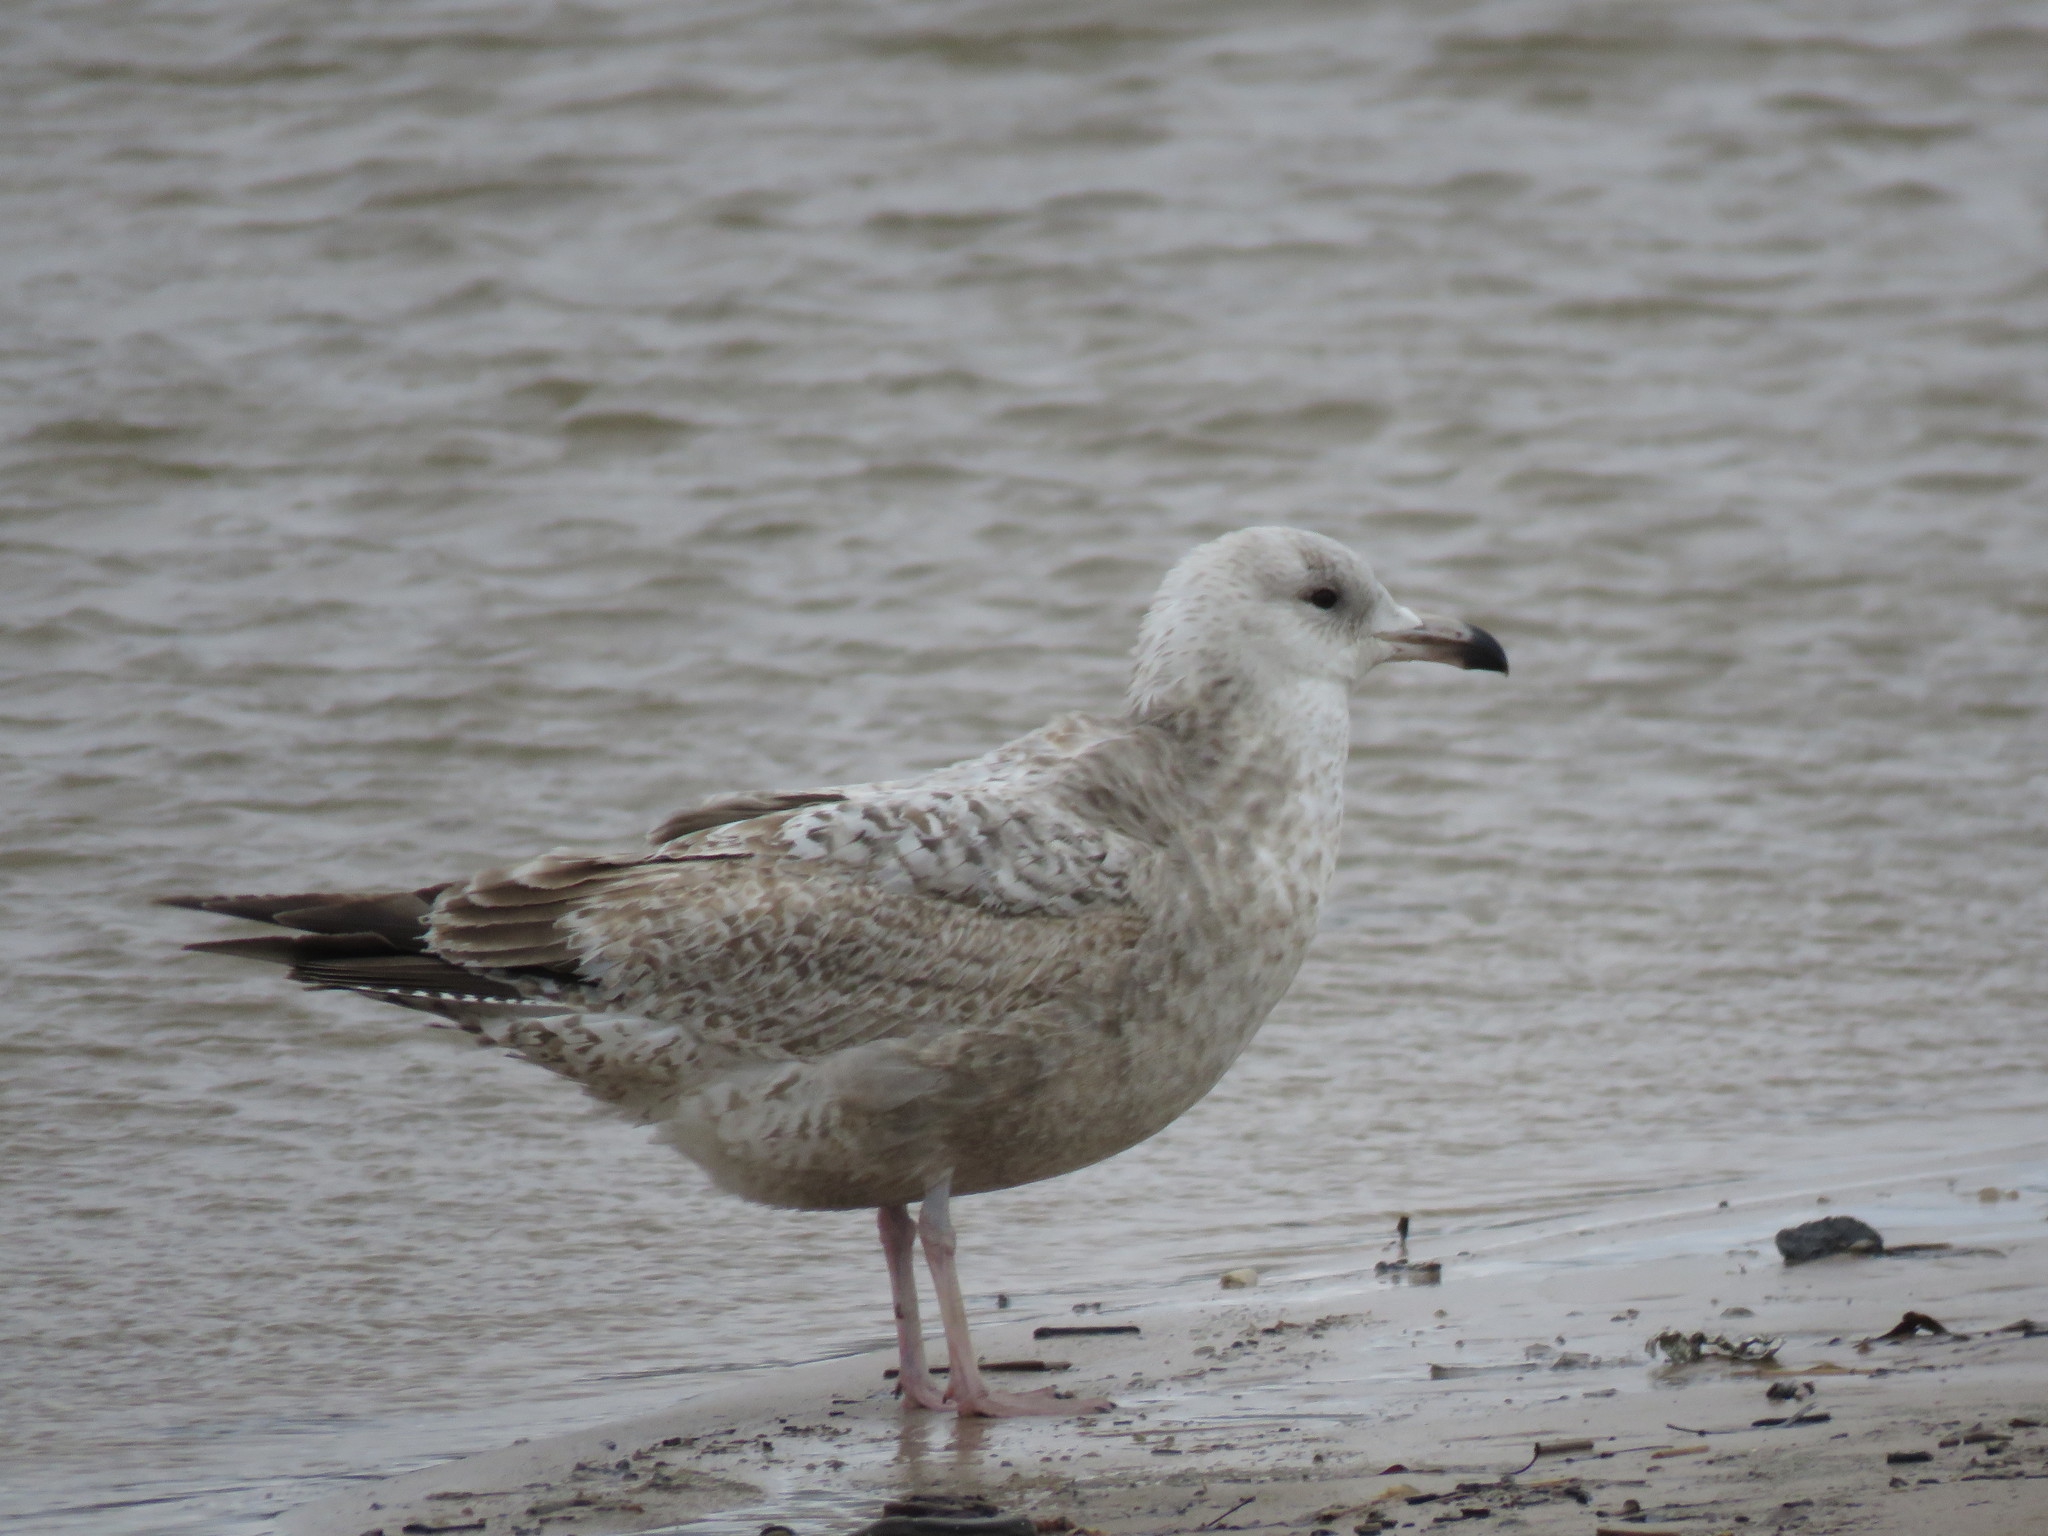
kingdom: Animalia
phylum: Chordata
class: Aves
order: Charadriiformes
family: Laridae
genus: Larus
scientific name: Larus argentatus
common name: Herring gull
